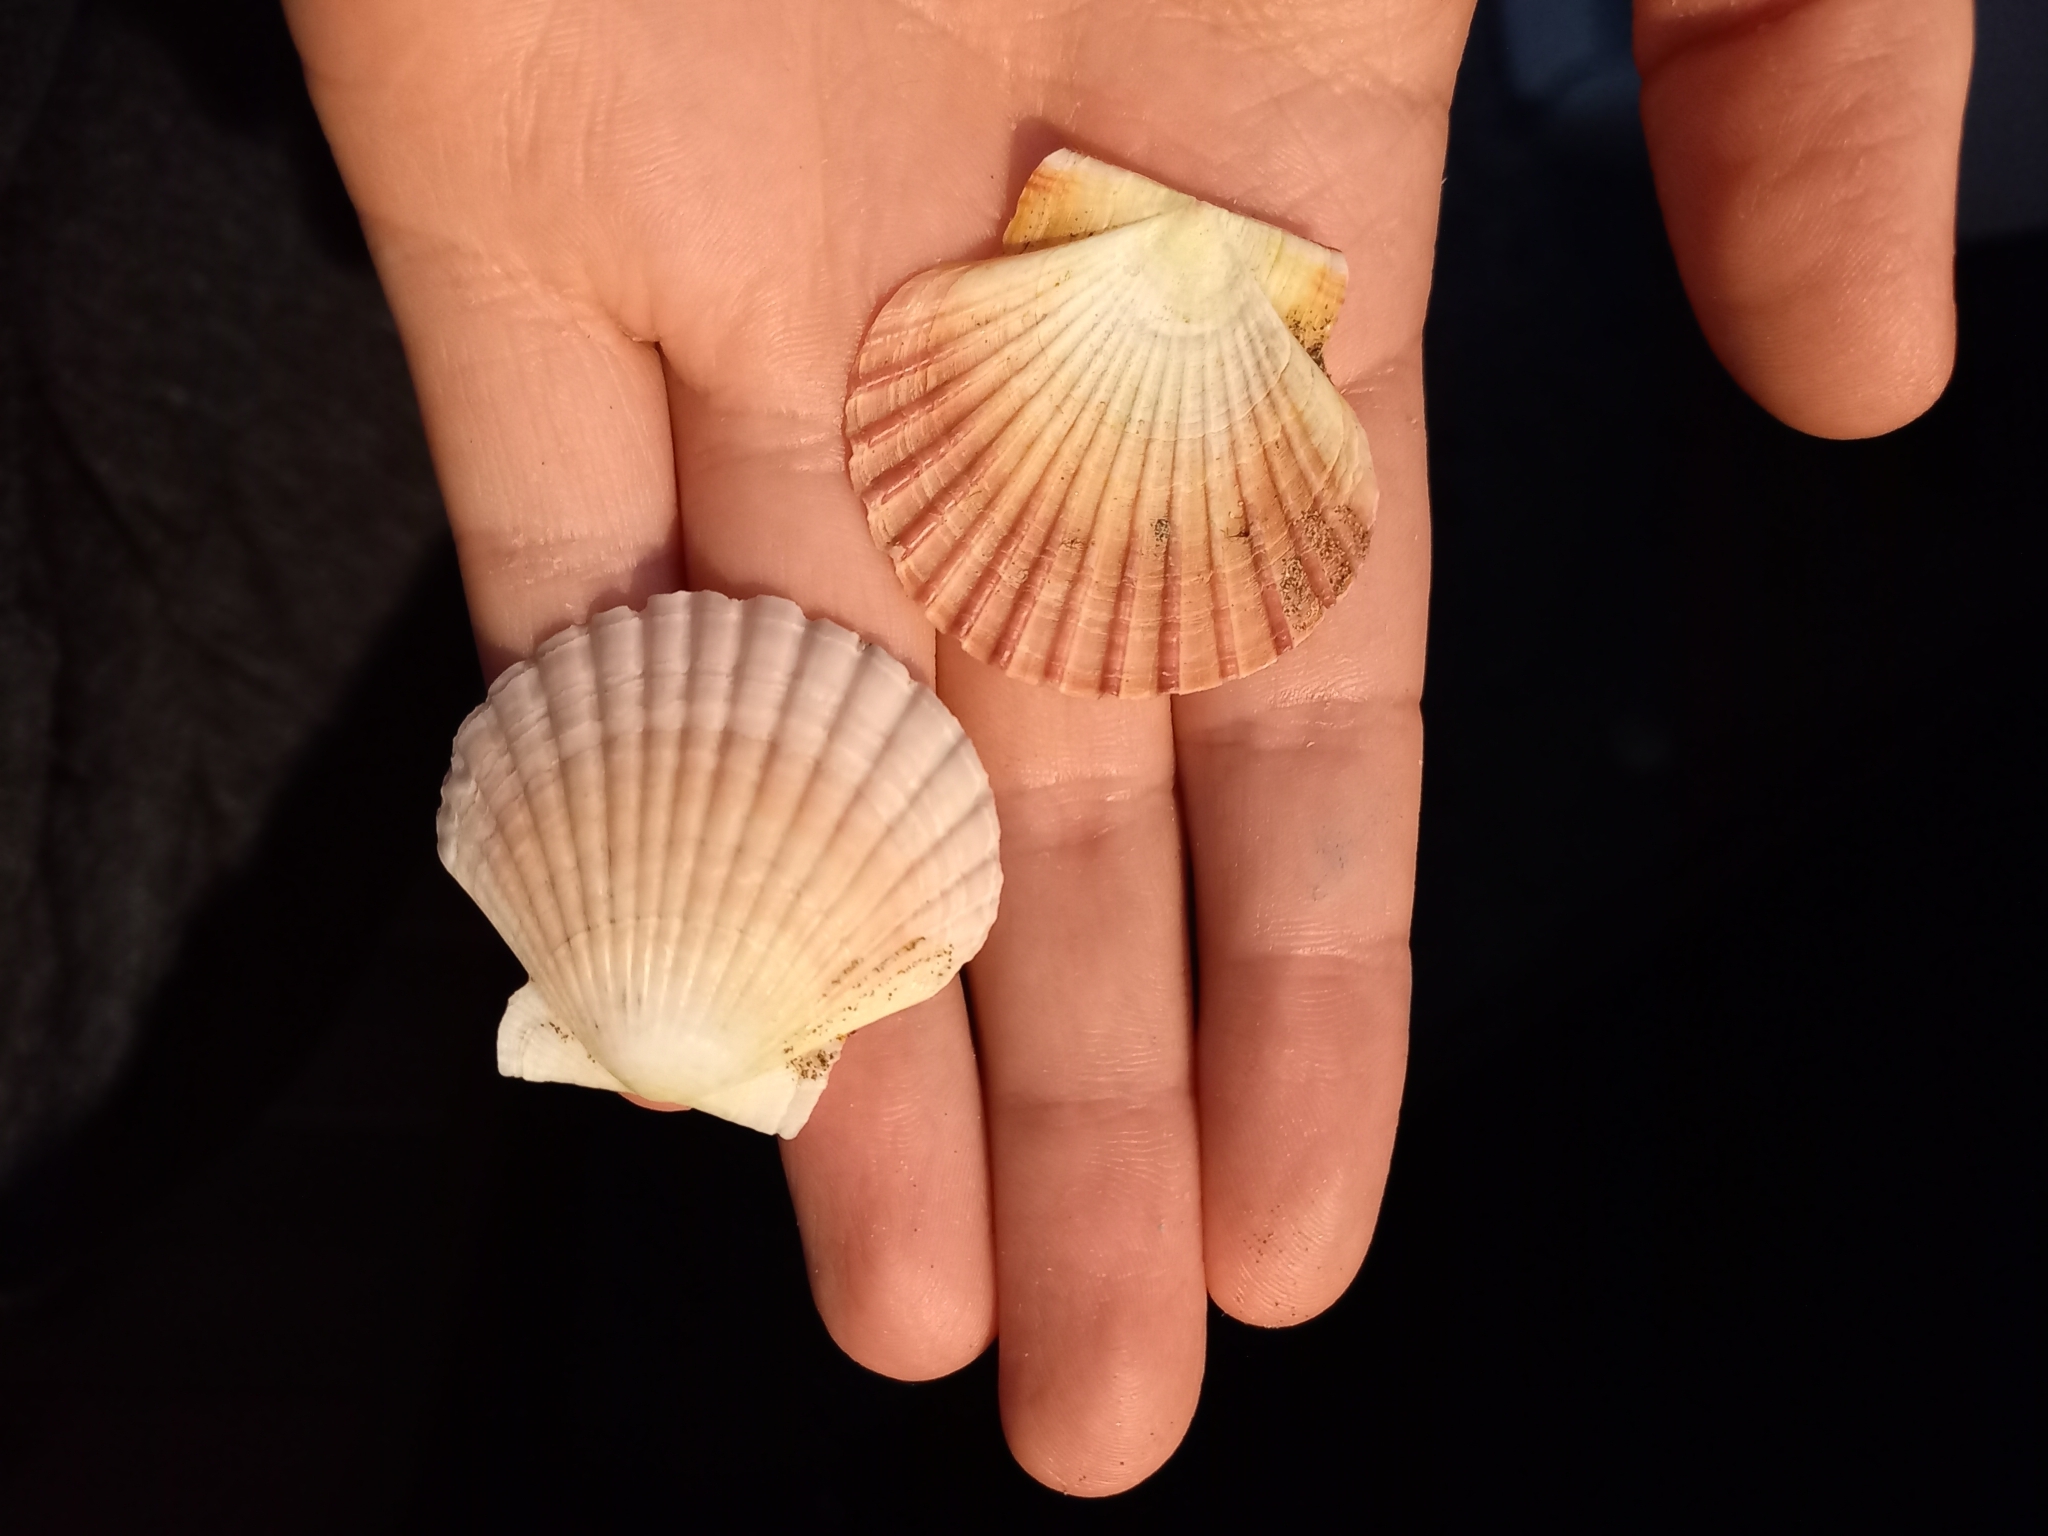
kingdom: Animalia
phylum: Mollusca
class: Bivalvia
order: Pectinida
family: Pectinidae
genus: Pecten
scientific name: Pecten novaezelandiae
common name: New zealand scallop
